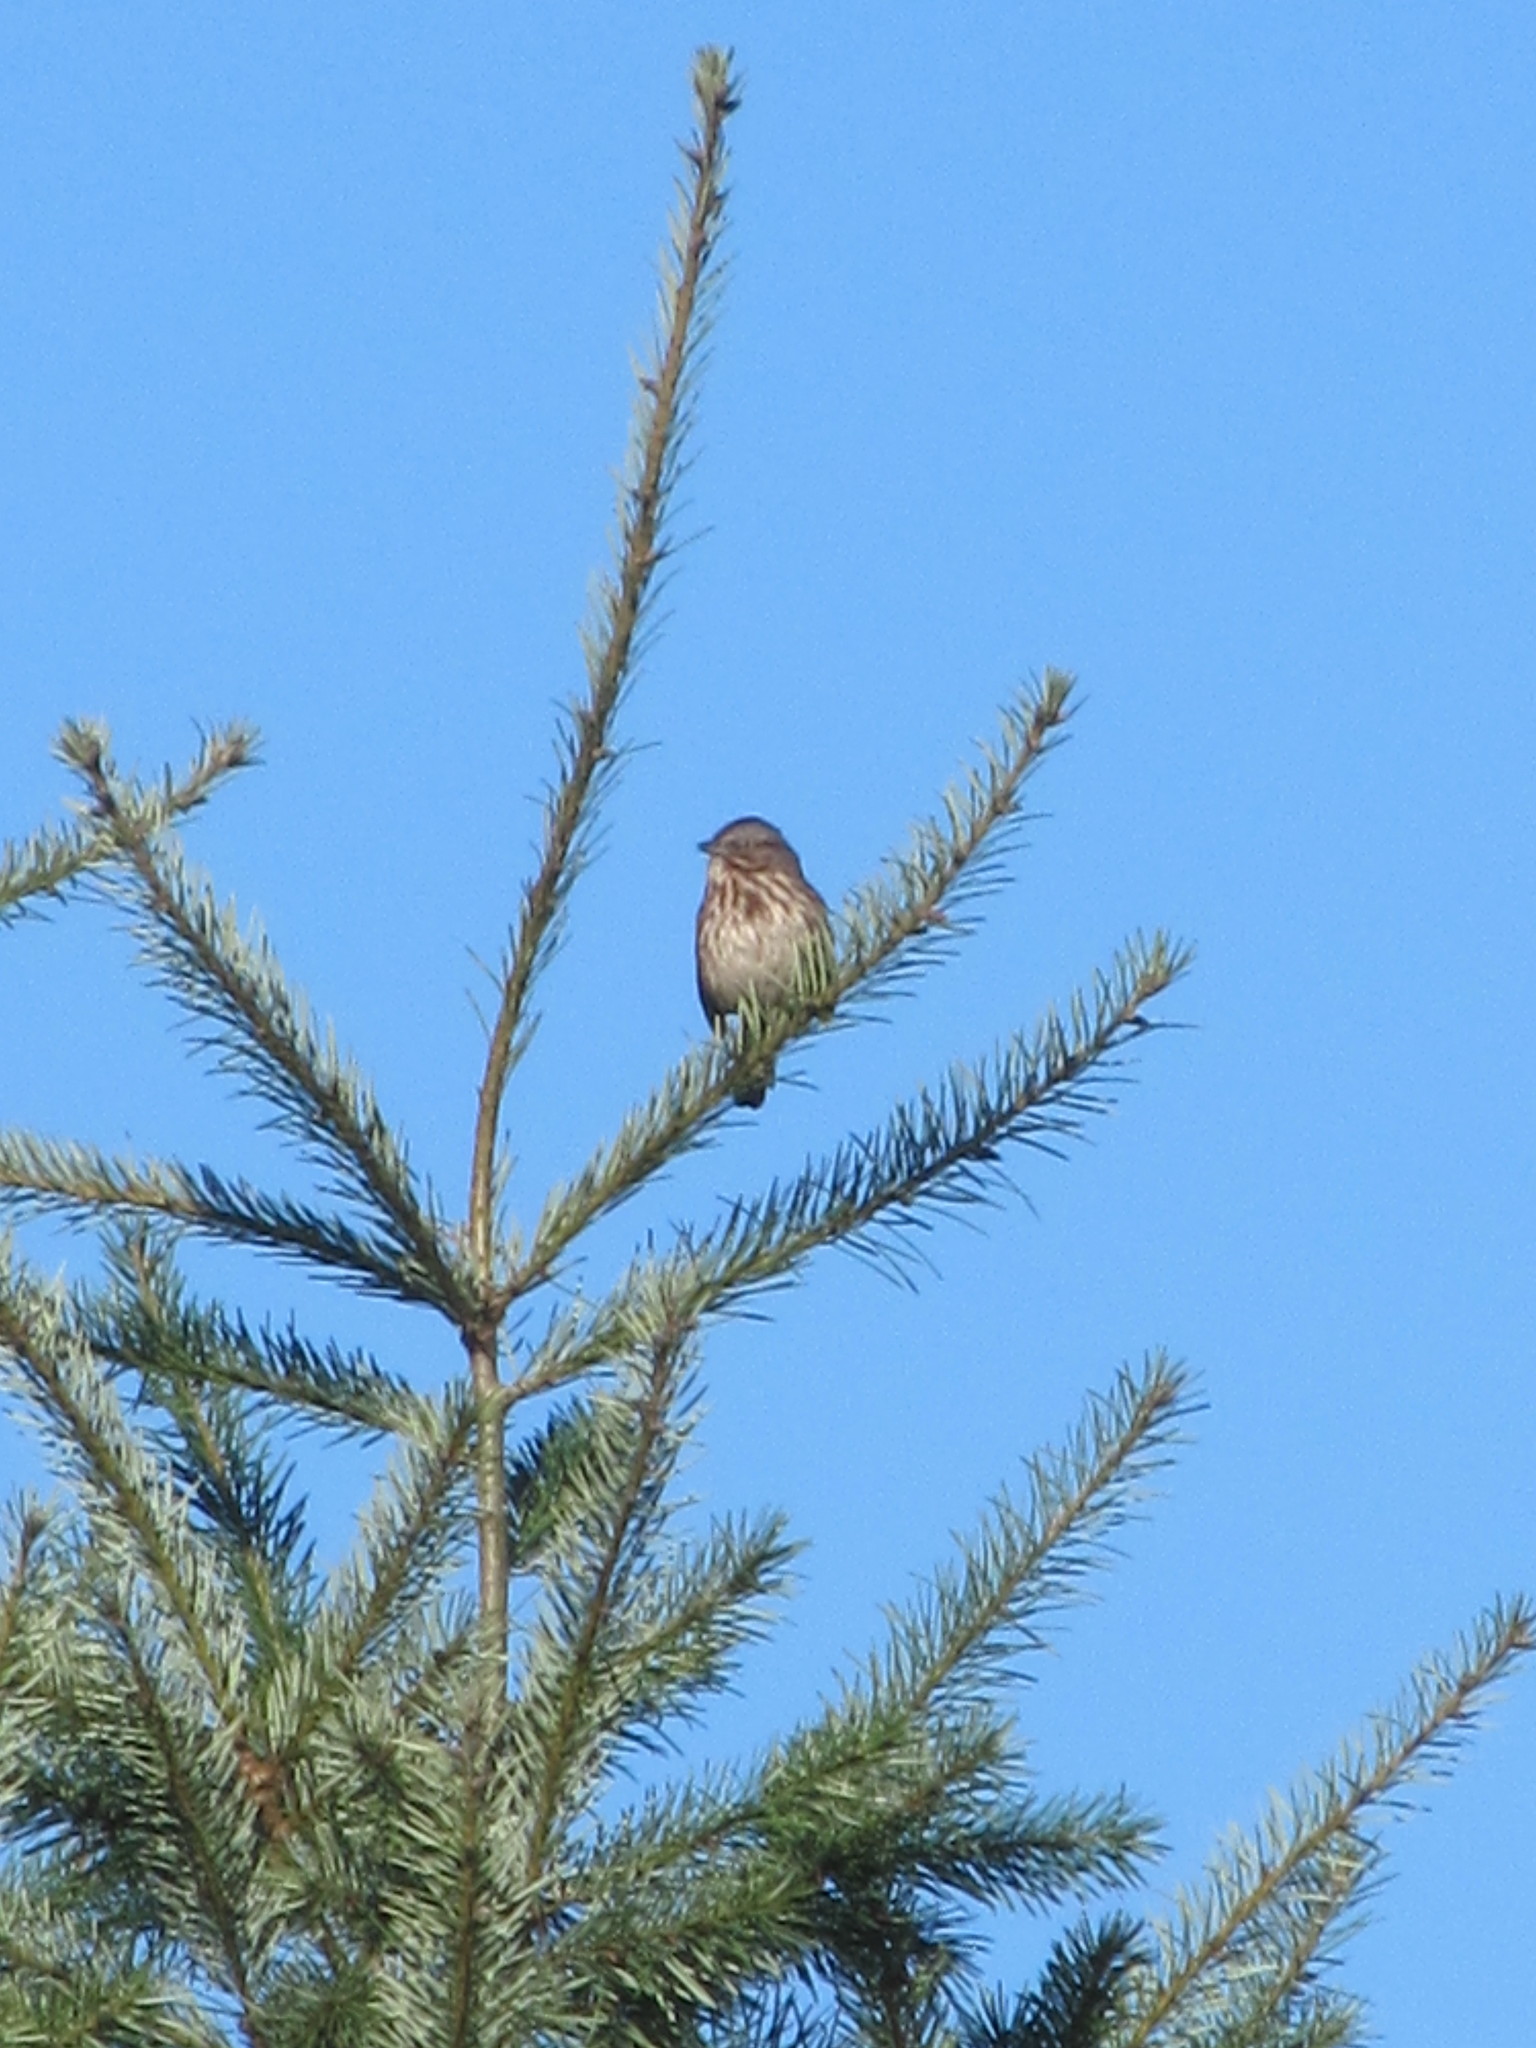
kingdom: Animalia
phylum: Chordata
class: Aves
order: Passeriformes
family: Passerellidae
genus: Melospiza
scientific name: Melospiza melodia
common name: Song sparrow
